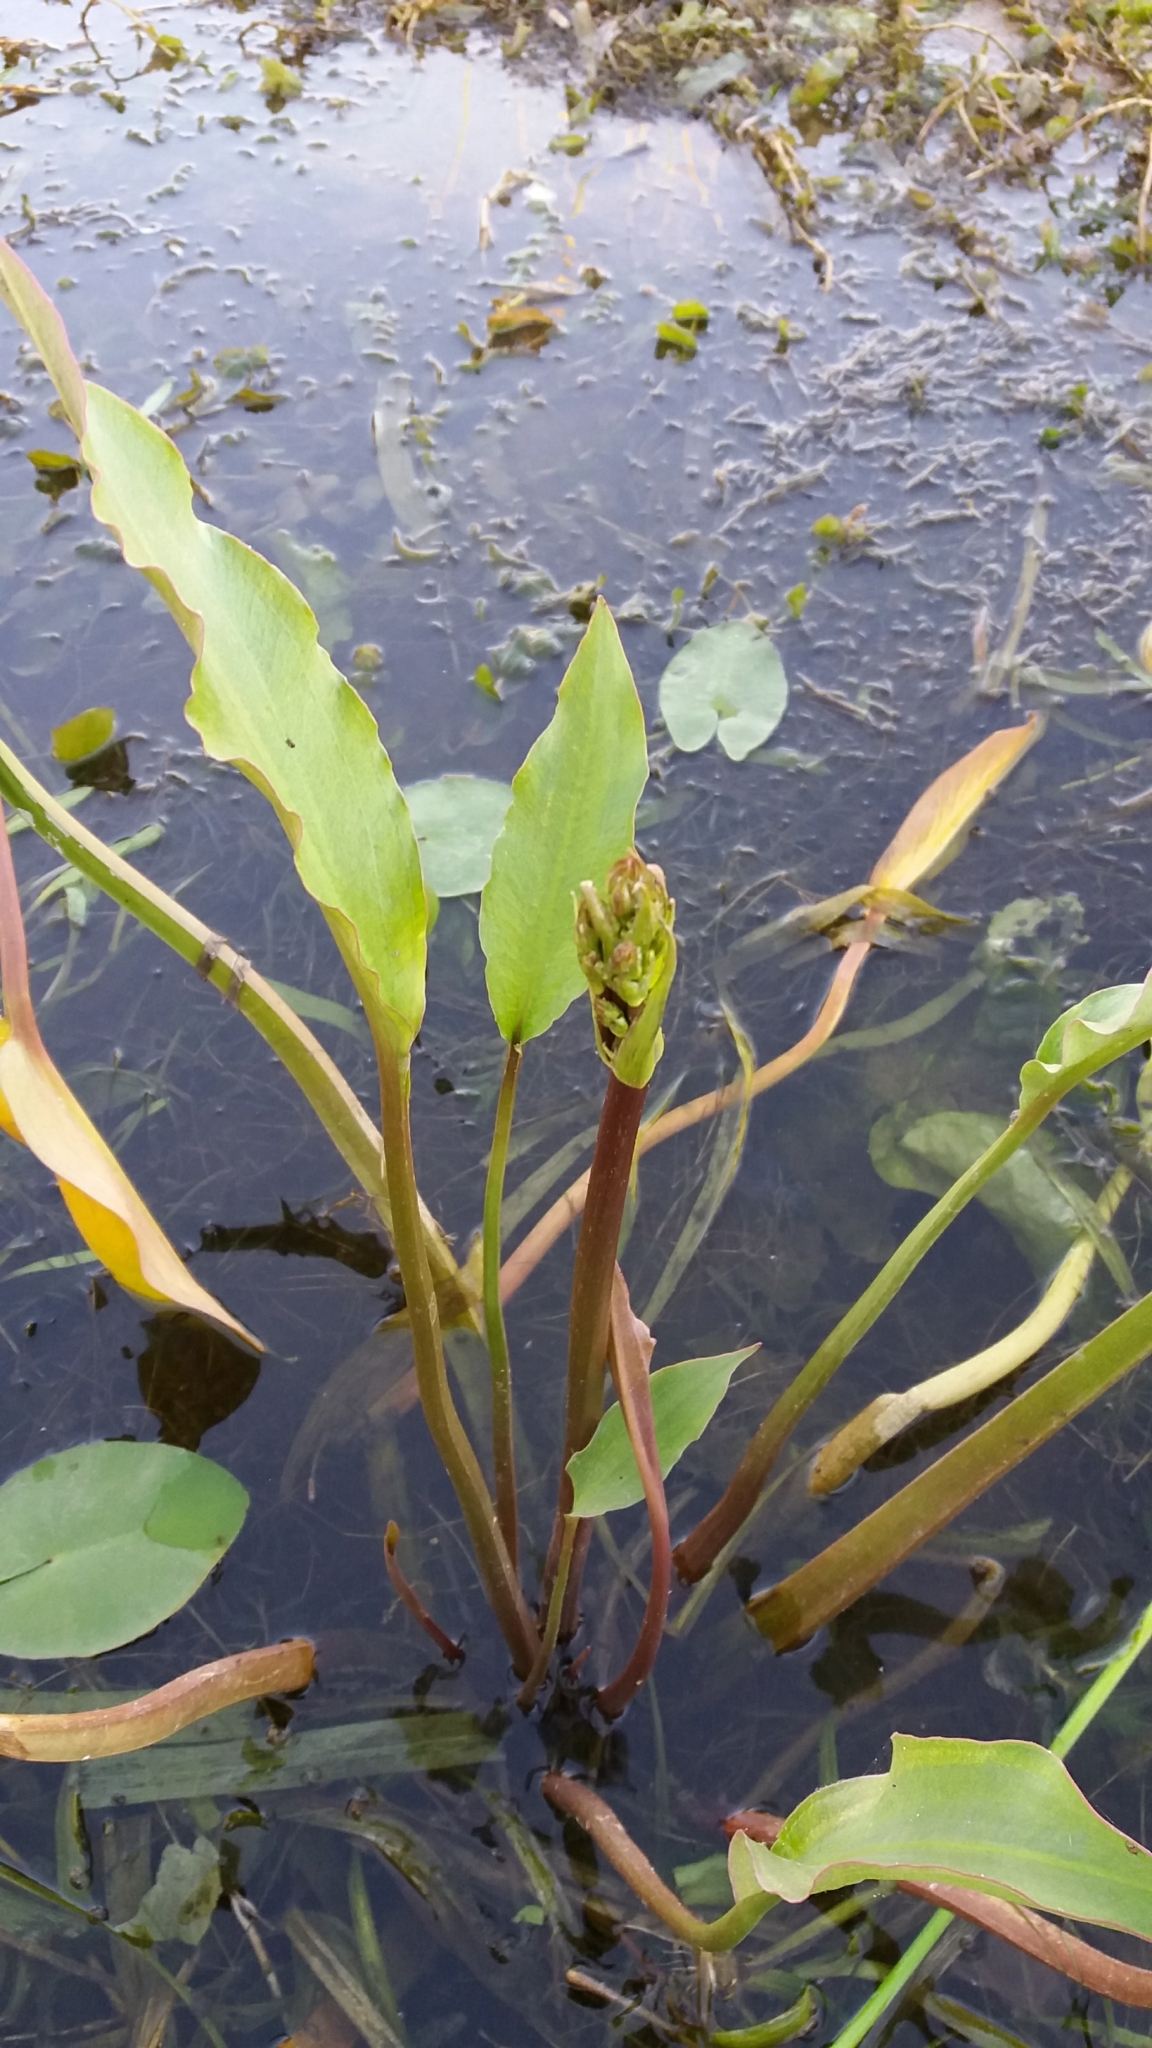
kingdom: Plantae
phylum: Tracheophyta
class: Liliopsida
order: Alismatales
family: Alismataceae
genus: Alisma
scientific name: Alisma plantago-aquatica
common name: Water-plantain
